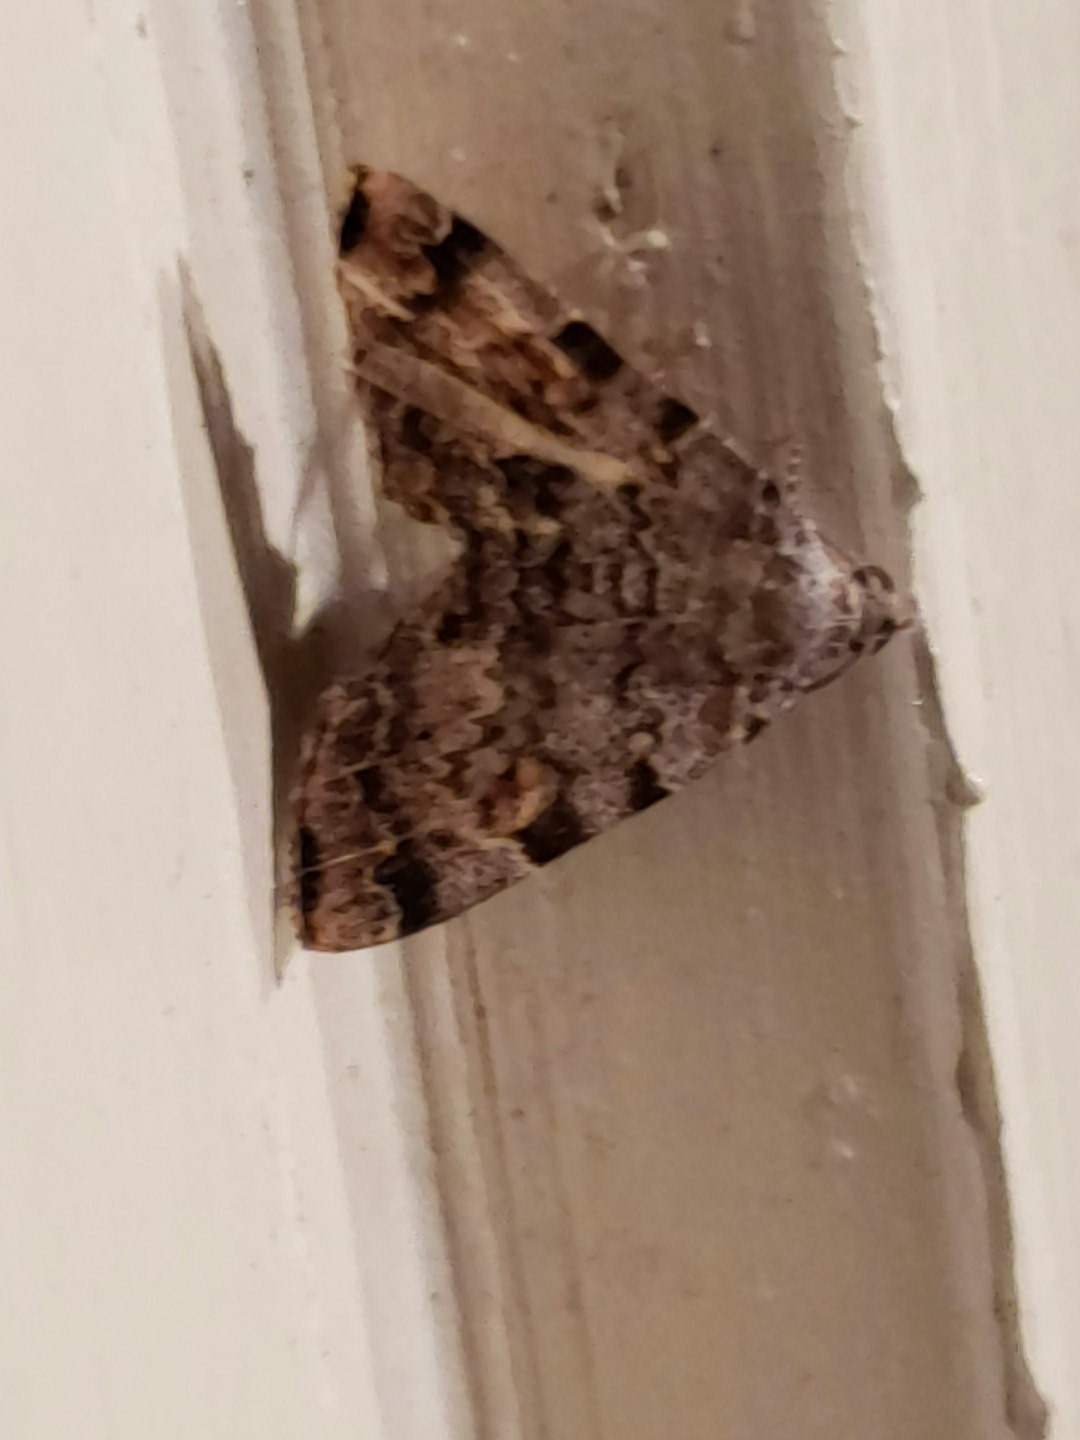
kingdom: Animalia
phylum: Arthropoda
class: Insecta
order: Lepidoptera
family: Erebidae
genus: Idia
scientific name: Idia americalis
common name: American idia moth
